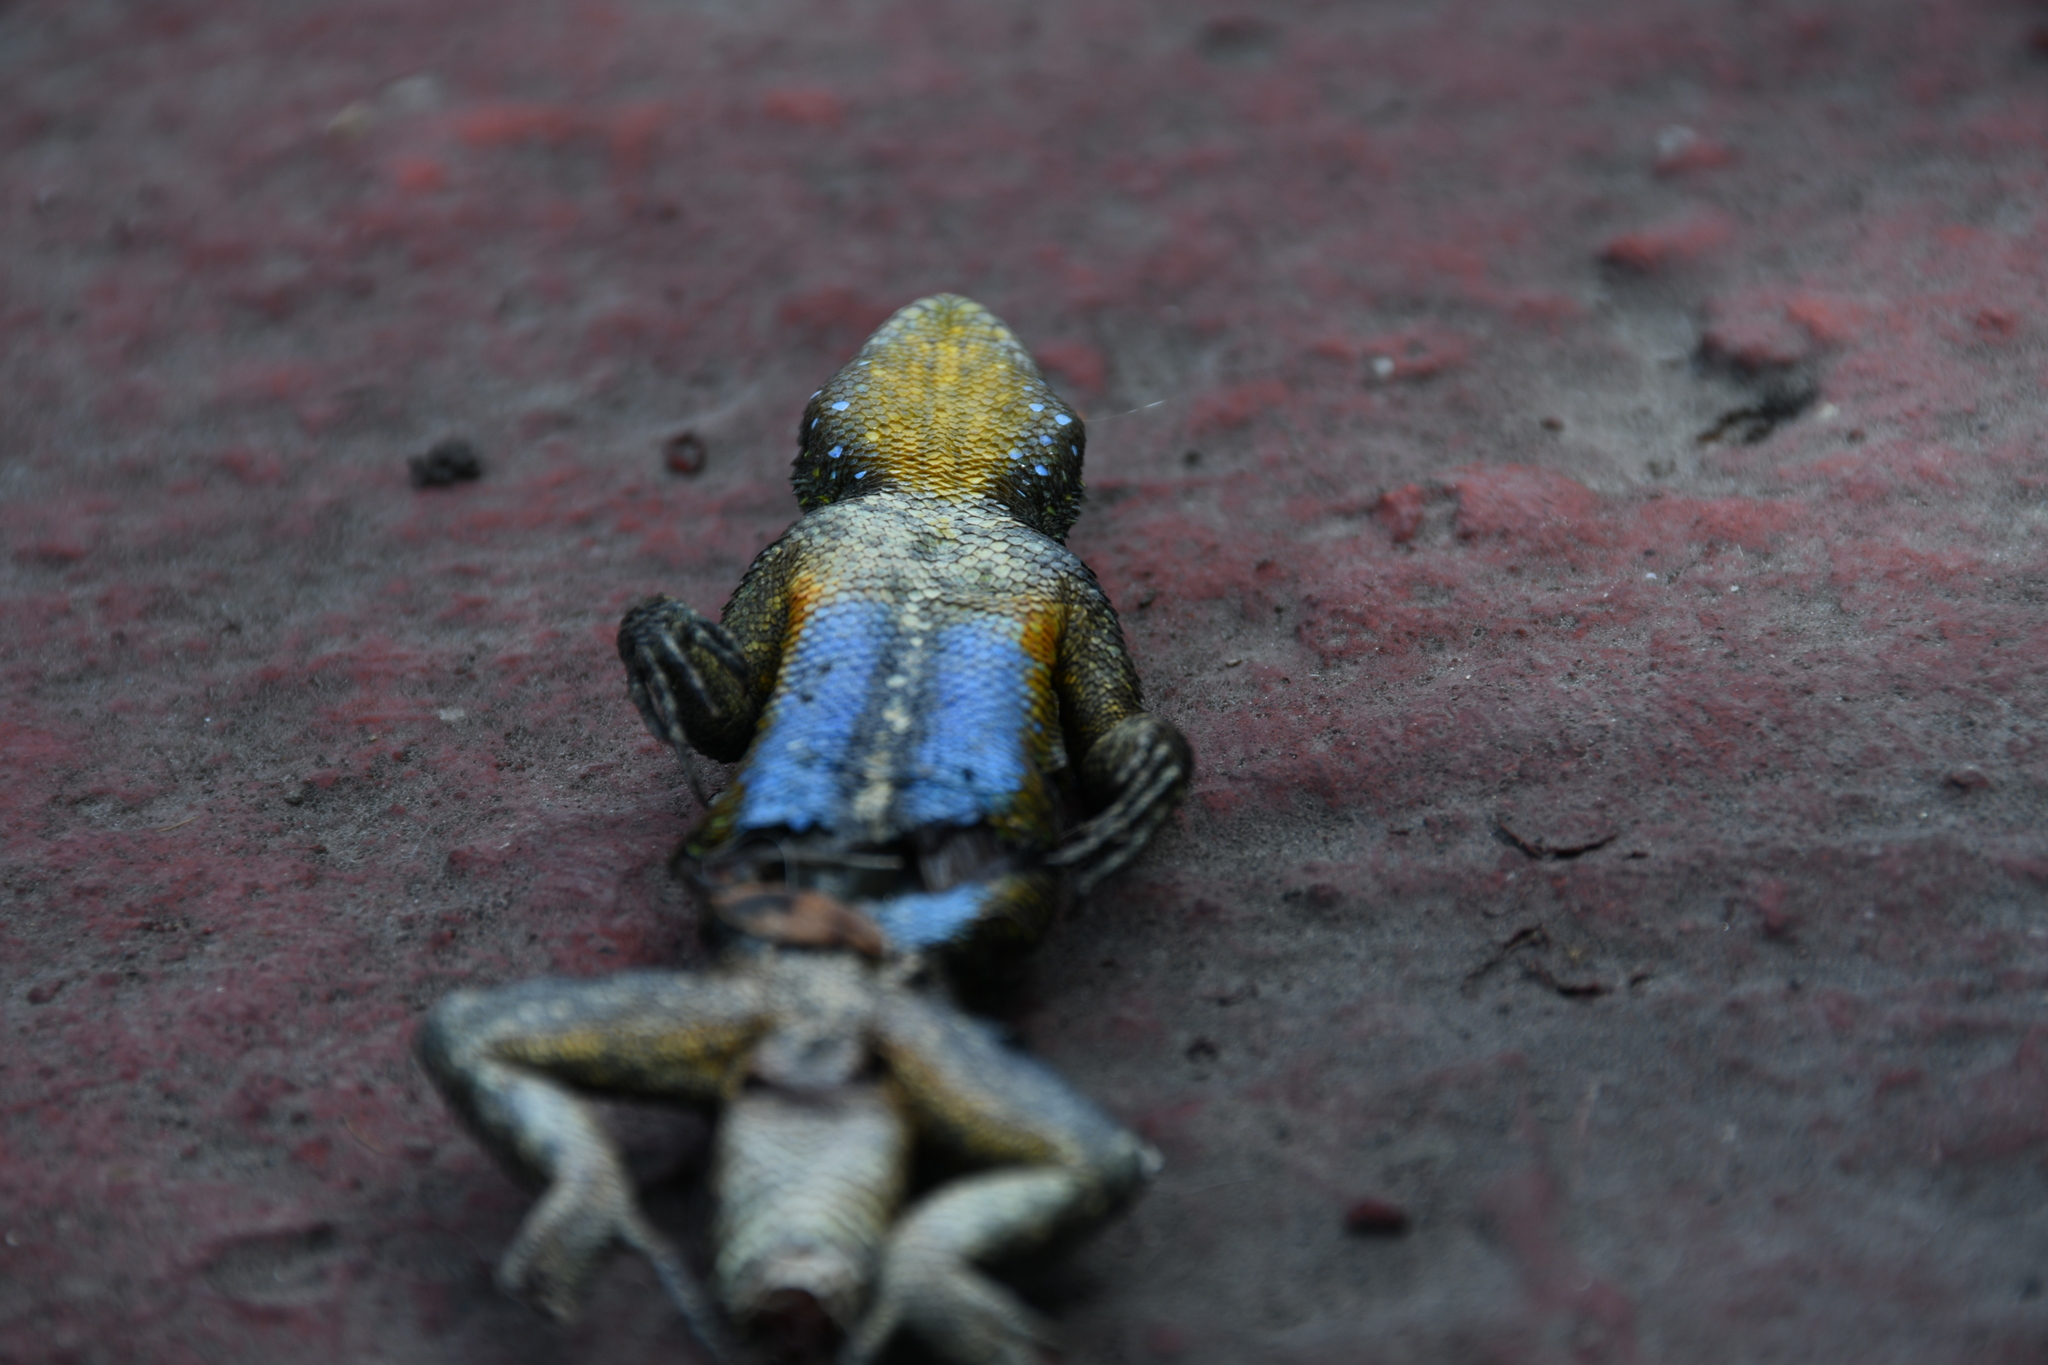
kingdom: Animalia
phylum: Chordata
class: Squamata
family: Phrynosomatidae
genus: Sceloporus
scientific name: Sceloporus grammicus
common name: Mesquite lizard
